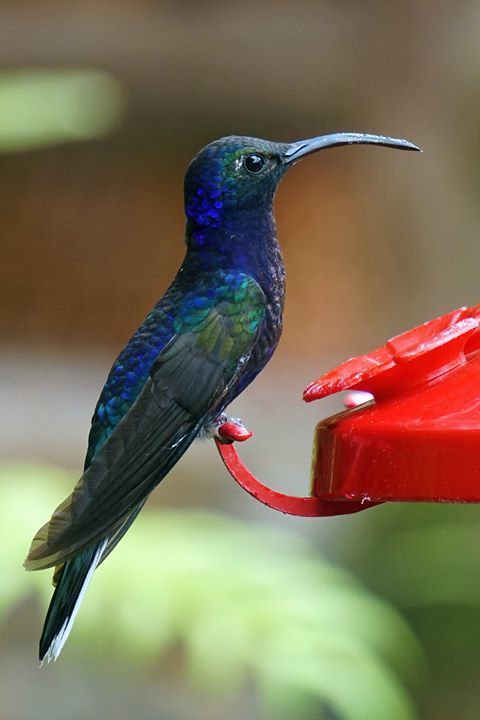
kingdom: Animalia
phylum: Chordata
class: Aves
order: Apodiformes
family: Trochilidae
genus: Campylopterus
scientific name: Campylopterus hemileucurus
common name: Violet sabrewing
